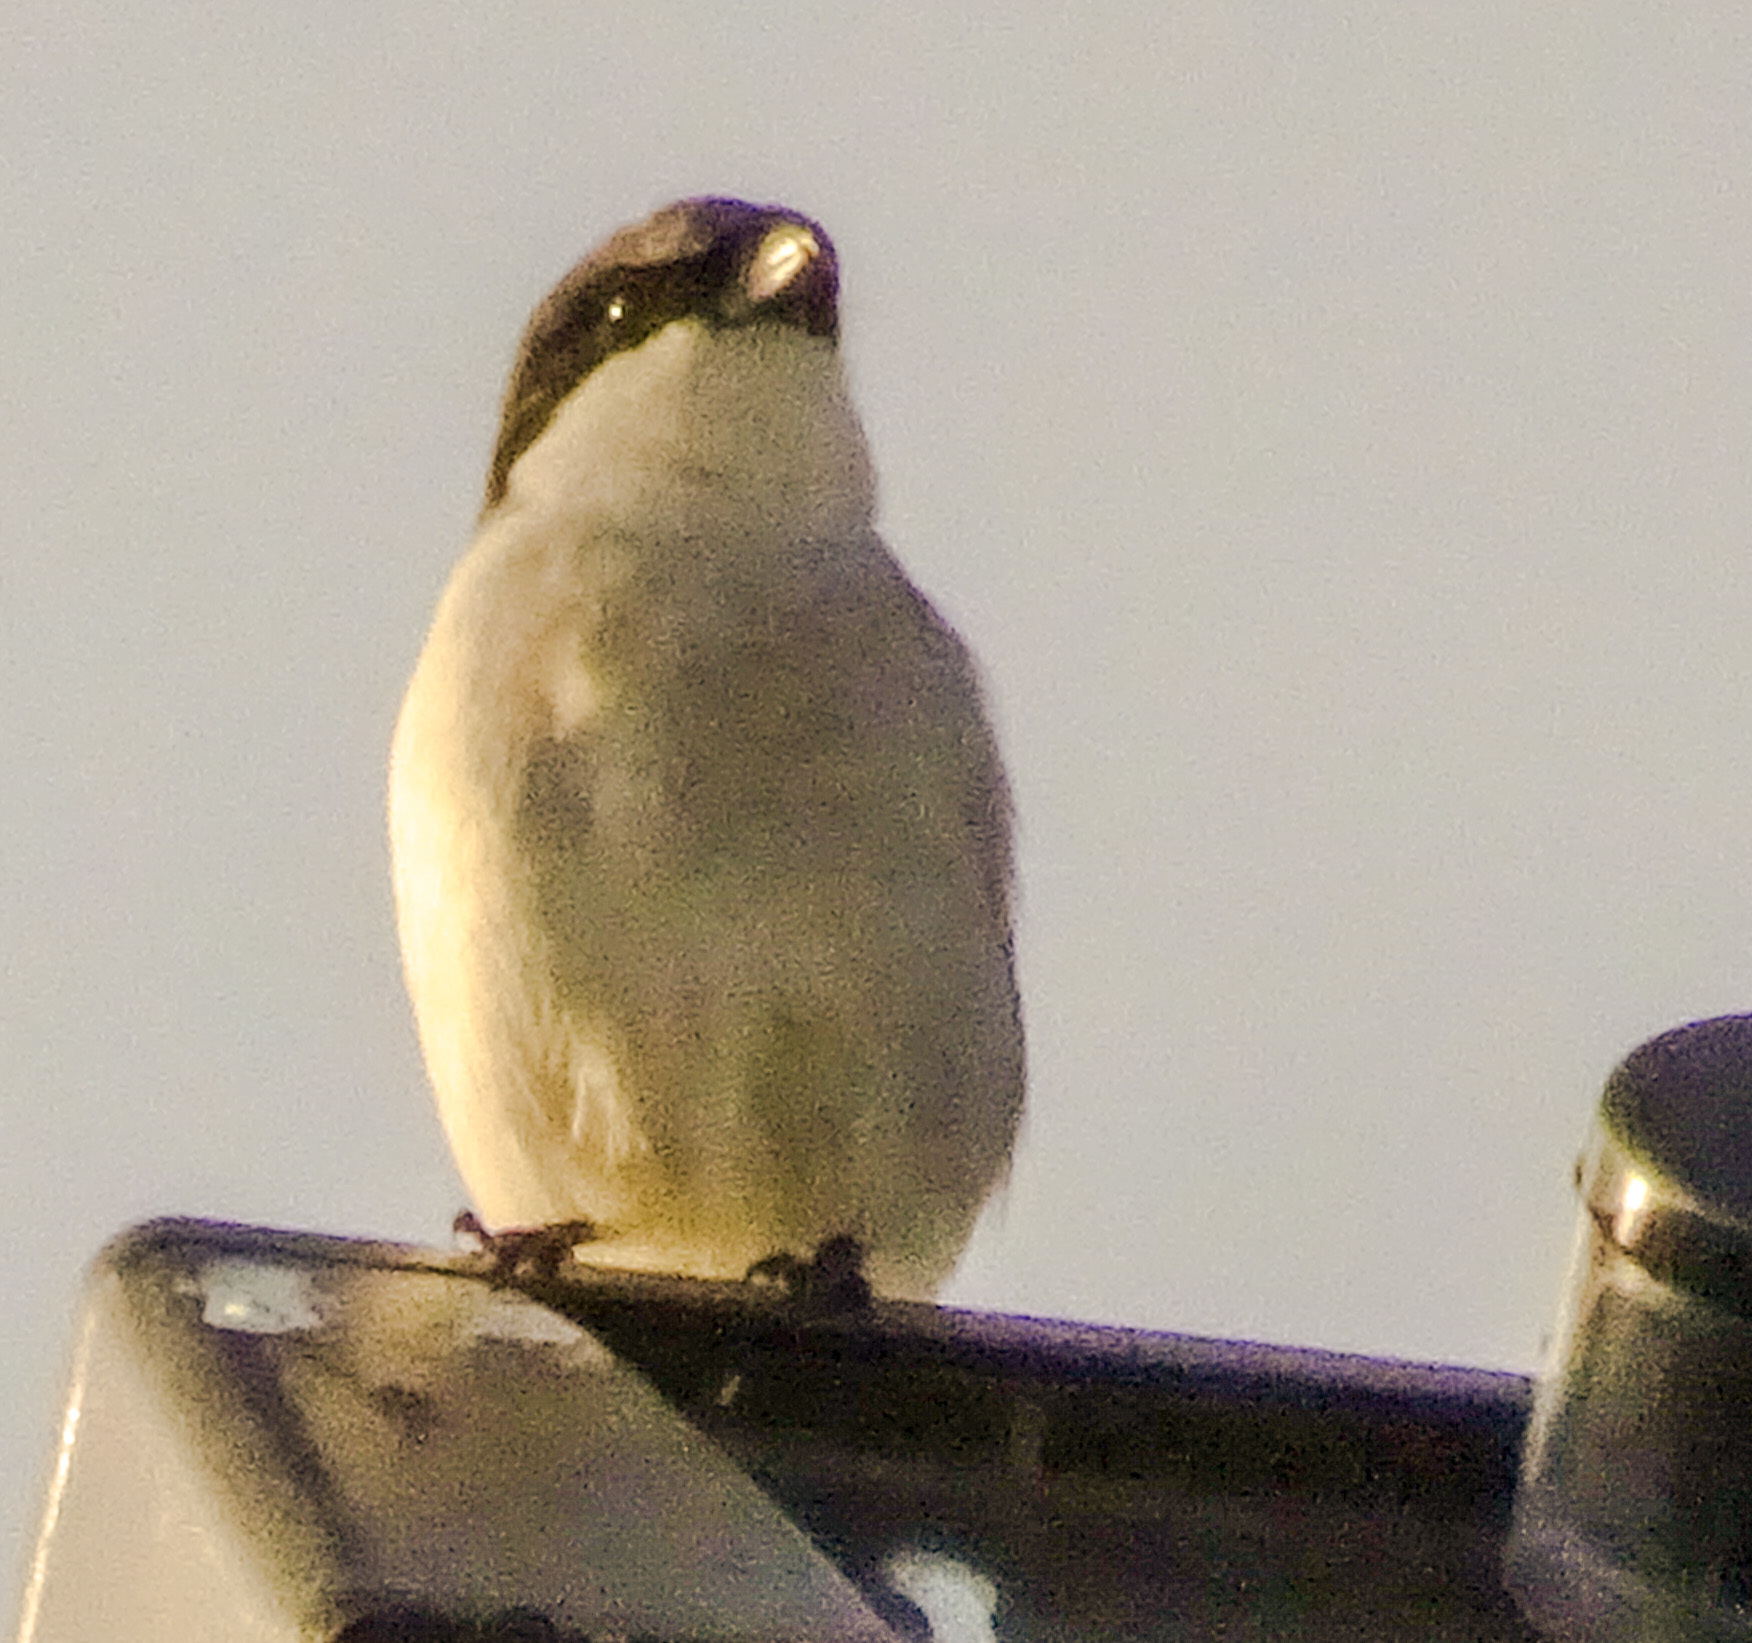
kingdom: Animalia
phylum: Chordata
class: Aves
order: Passeriformes
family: Laniidae
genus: Lanius
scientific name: Lanius ludovicianus
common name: Loggerhead shrike
